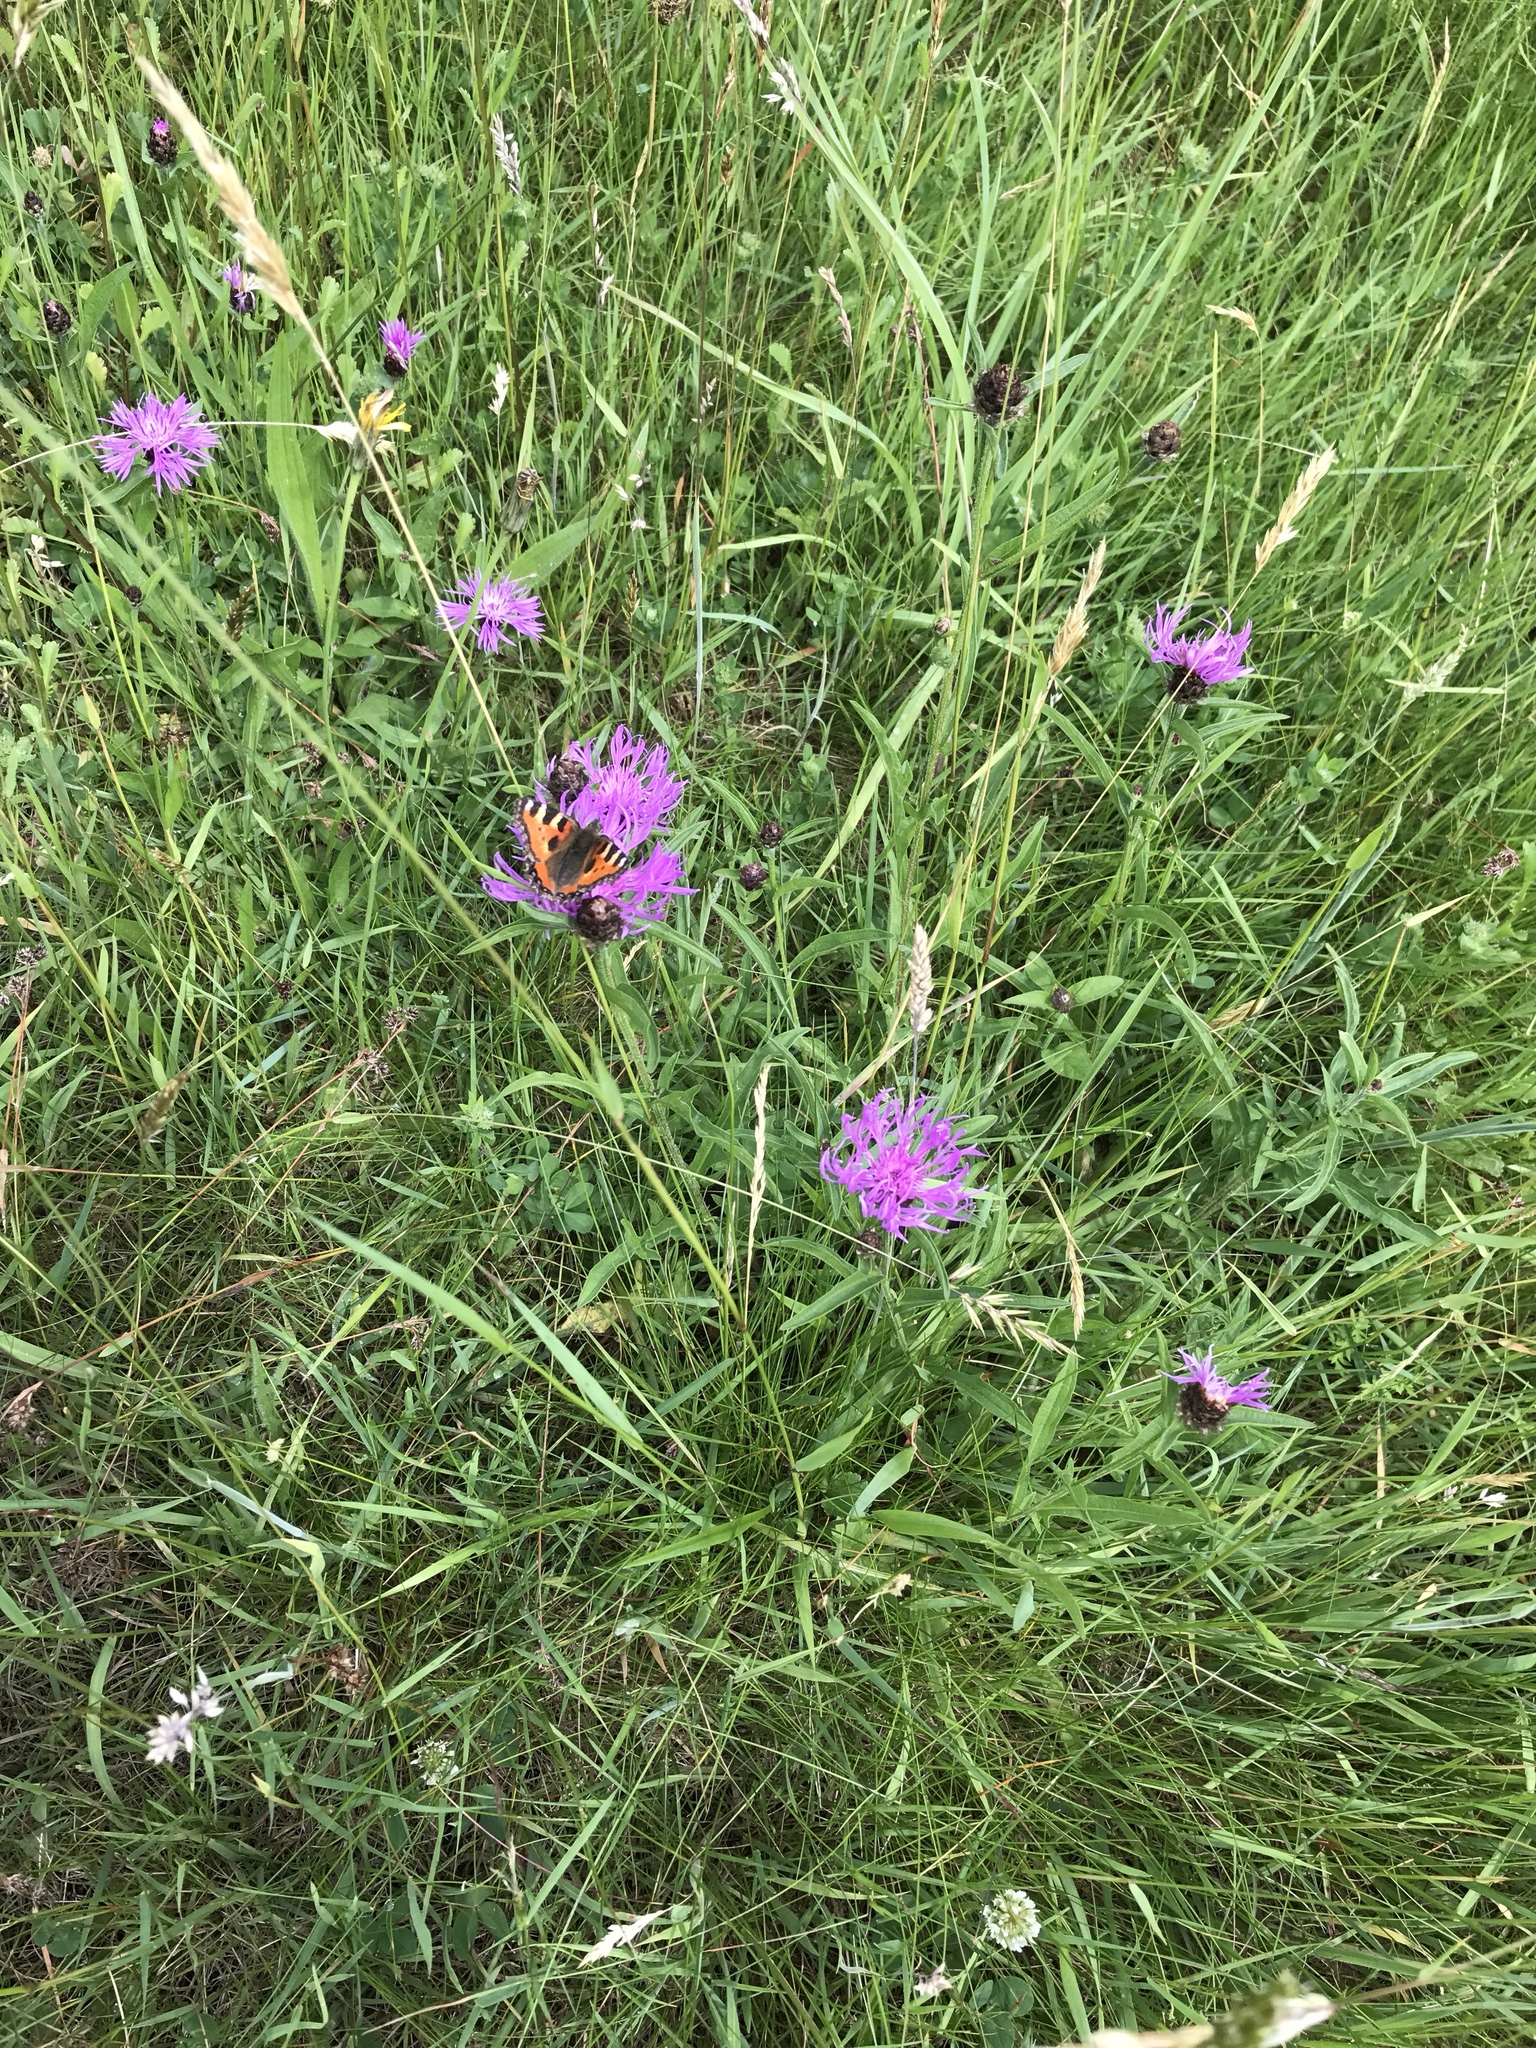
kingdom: Animalia
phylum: Arthropoda
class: Insecta
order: Lepidoptera
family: Nymphalidae
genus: Aglais
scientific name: Aglais urticae
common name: Small tortoiseshell
